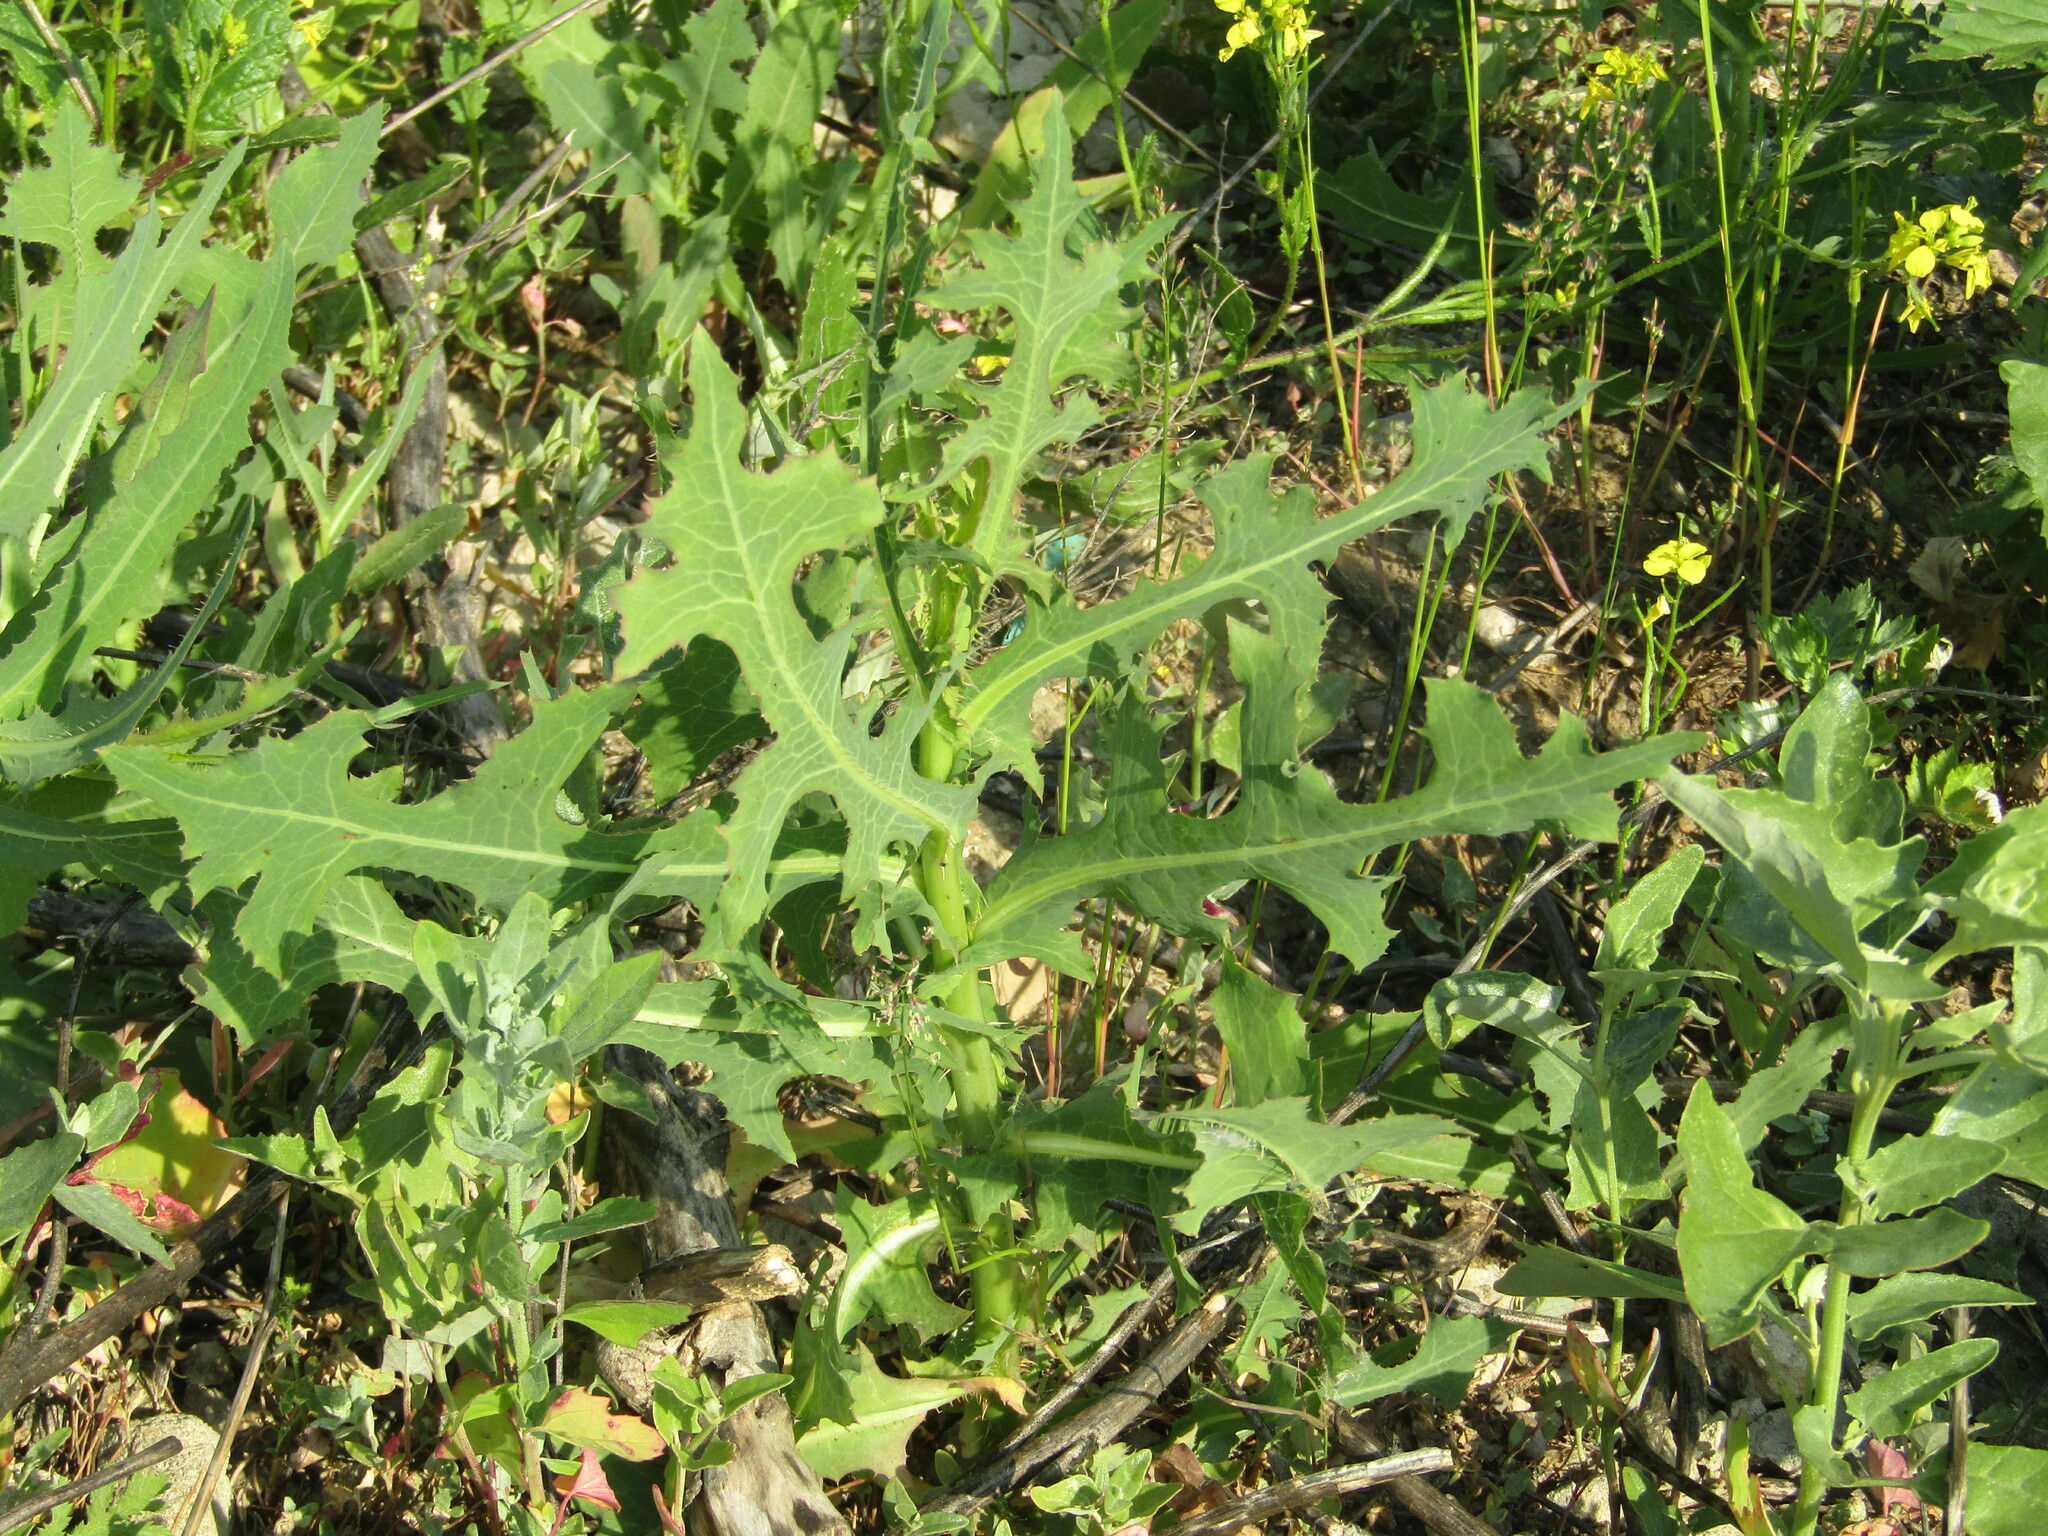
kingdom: Plantae
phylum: Tracheophyta
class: Magnoliopsida
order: Asterales
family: Asteraceae
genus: Lactuca
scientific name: Lactuca serriola
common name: Prickly lettuce
